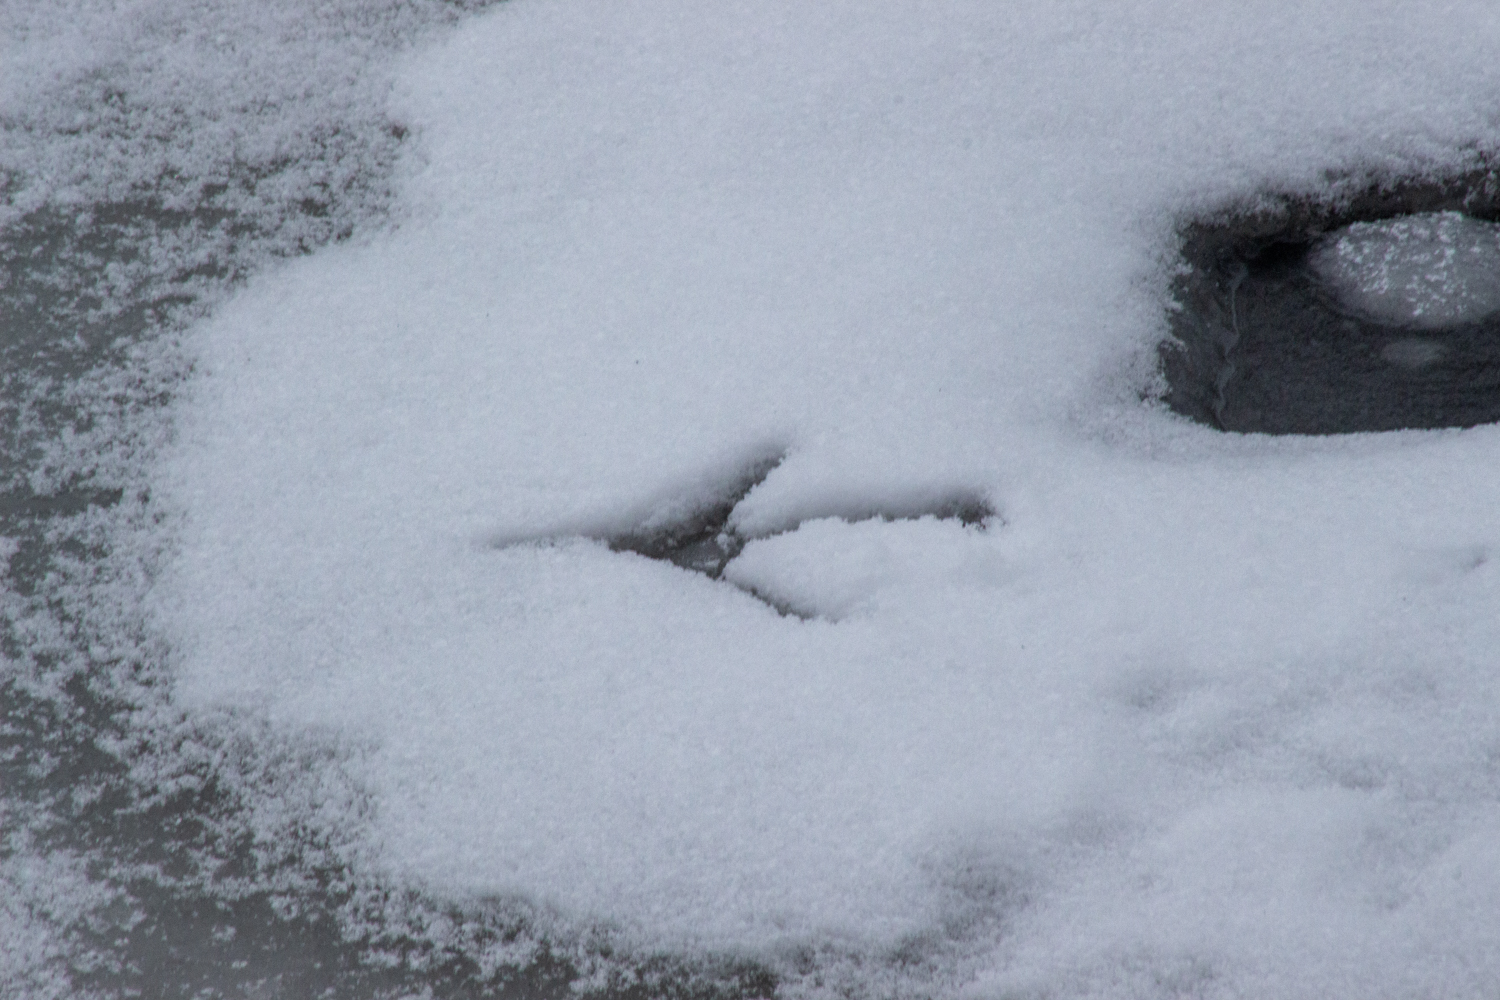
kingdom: Animalia
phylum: Chordata
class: Aves
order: Pelecaniformes
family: Ardeidae
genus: Ardea
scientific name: Ardea alba
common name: Great egret
